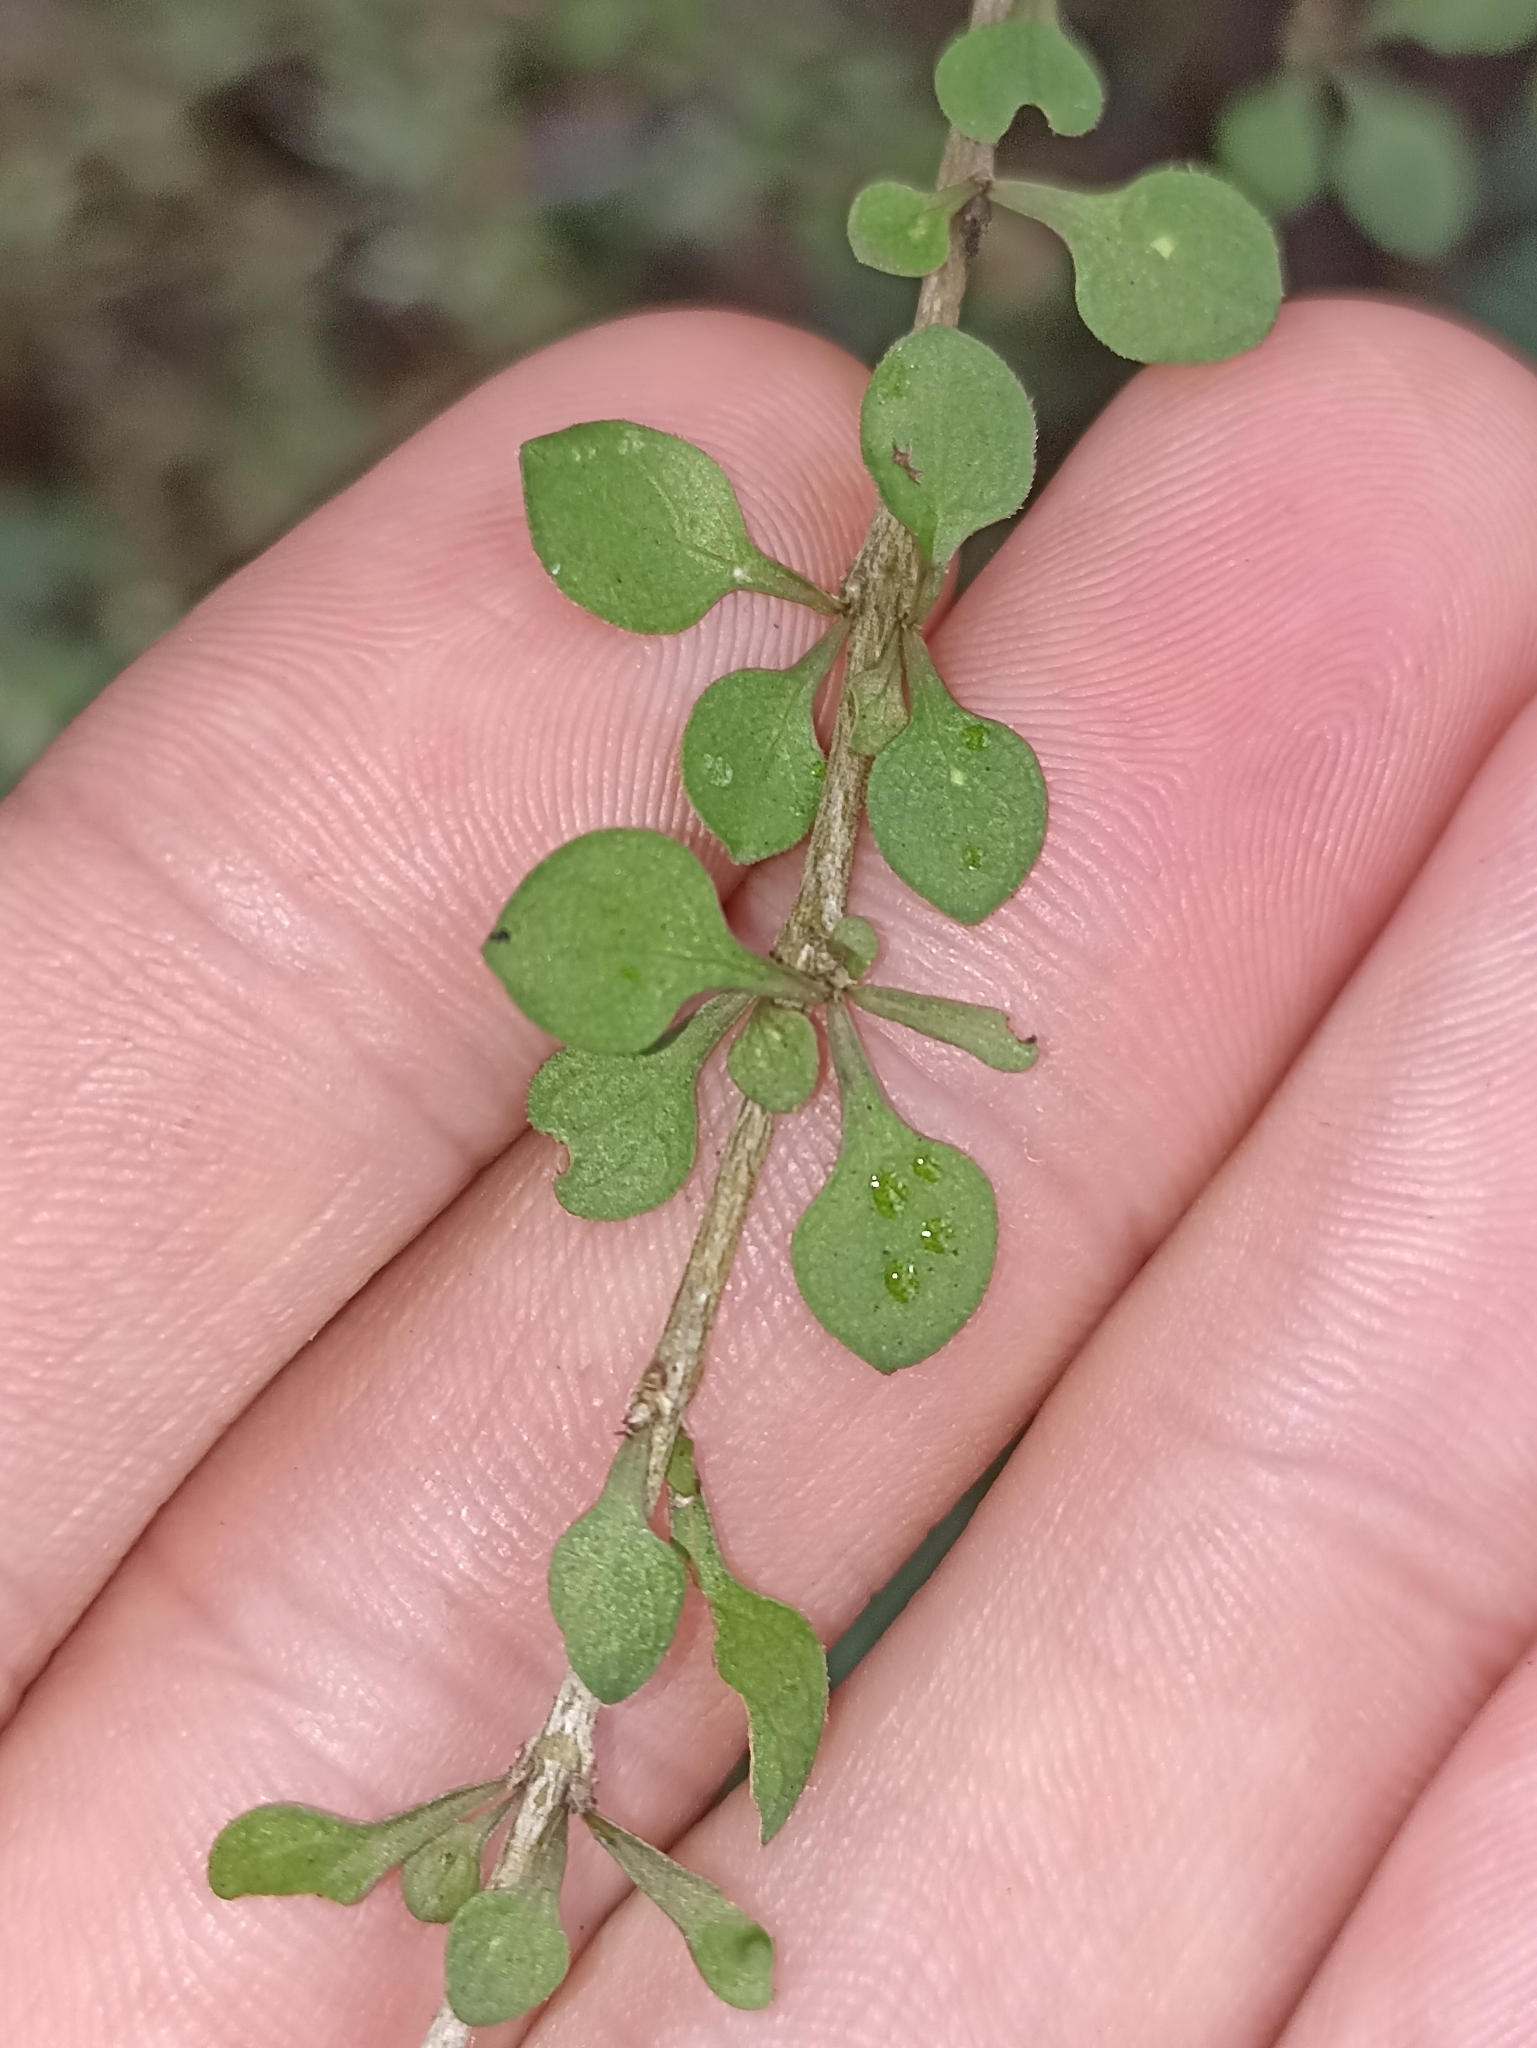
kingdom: Plantae
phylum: Tracheophyta
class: Magnoliopsida
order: Gentianales
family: Rubiaceae
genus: Coprosma
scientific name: Coprosma virescens
